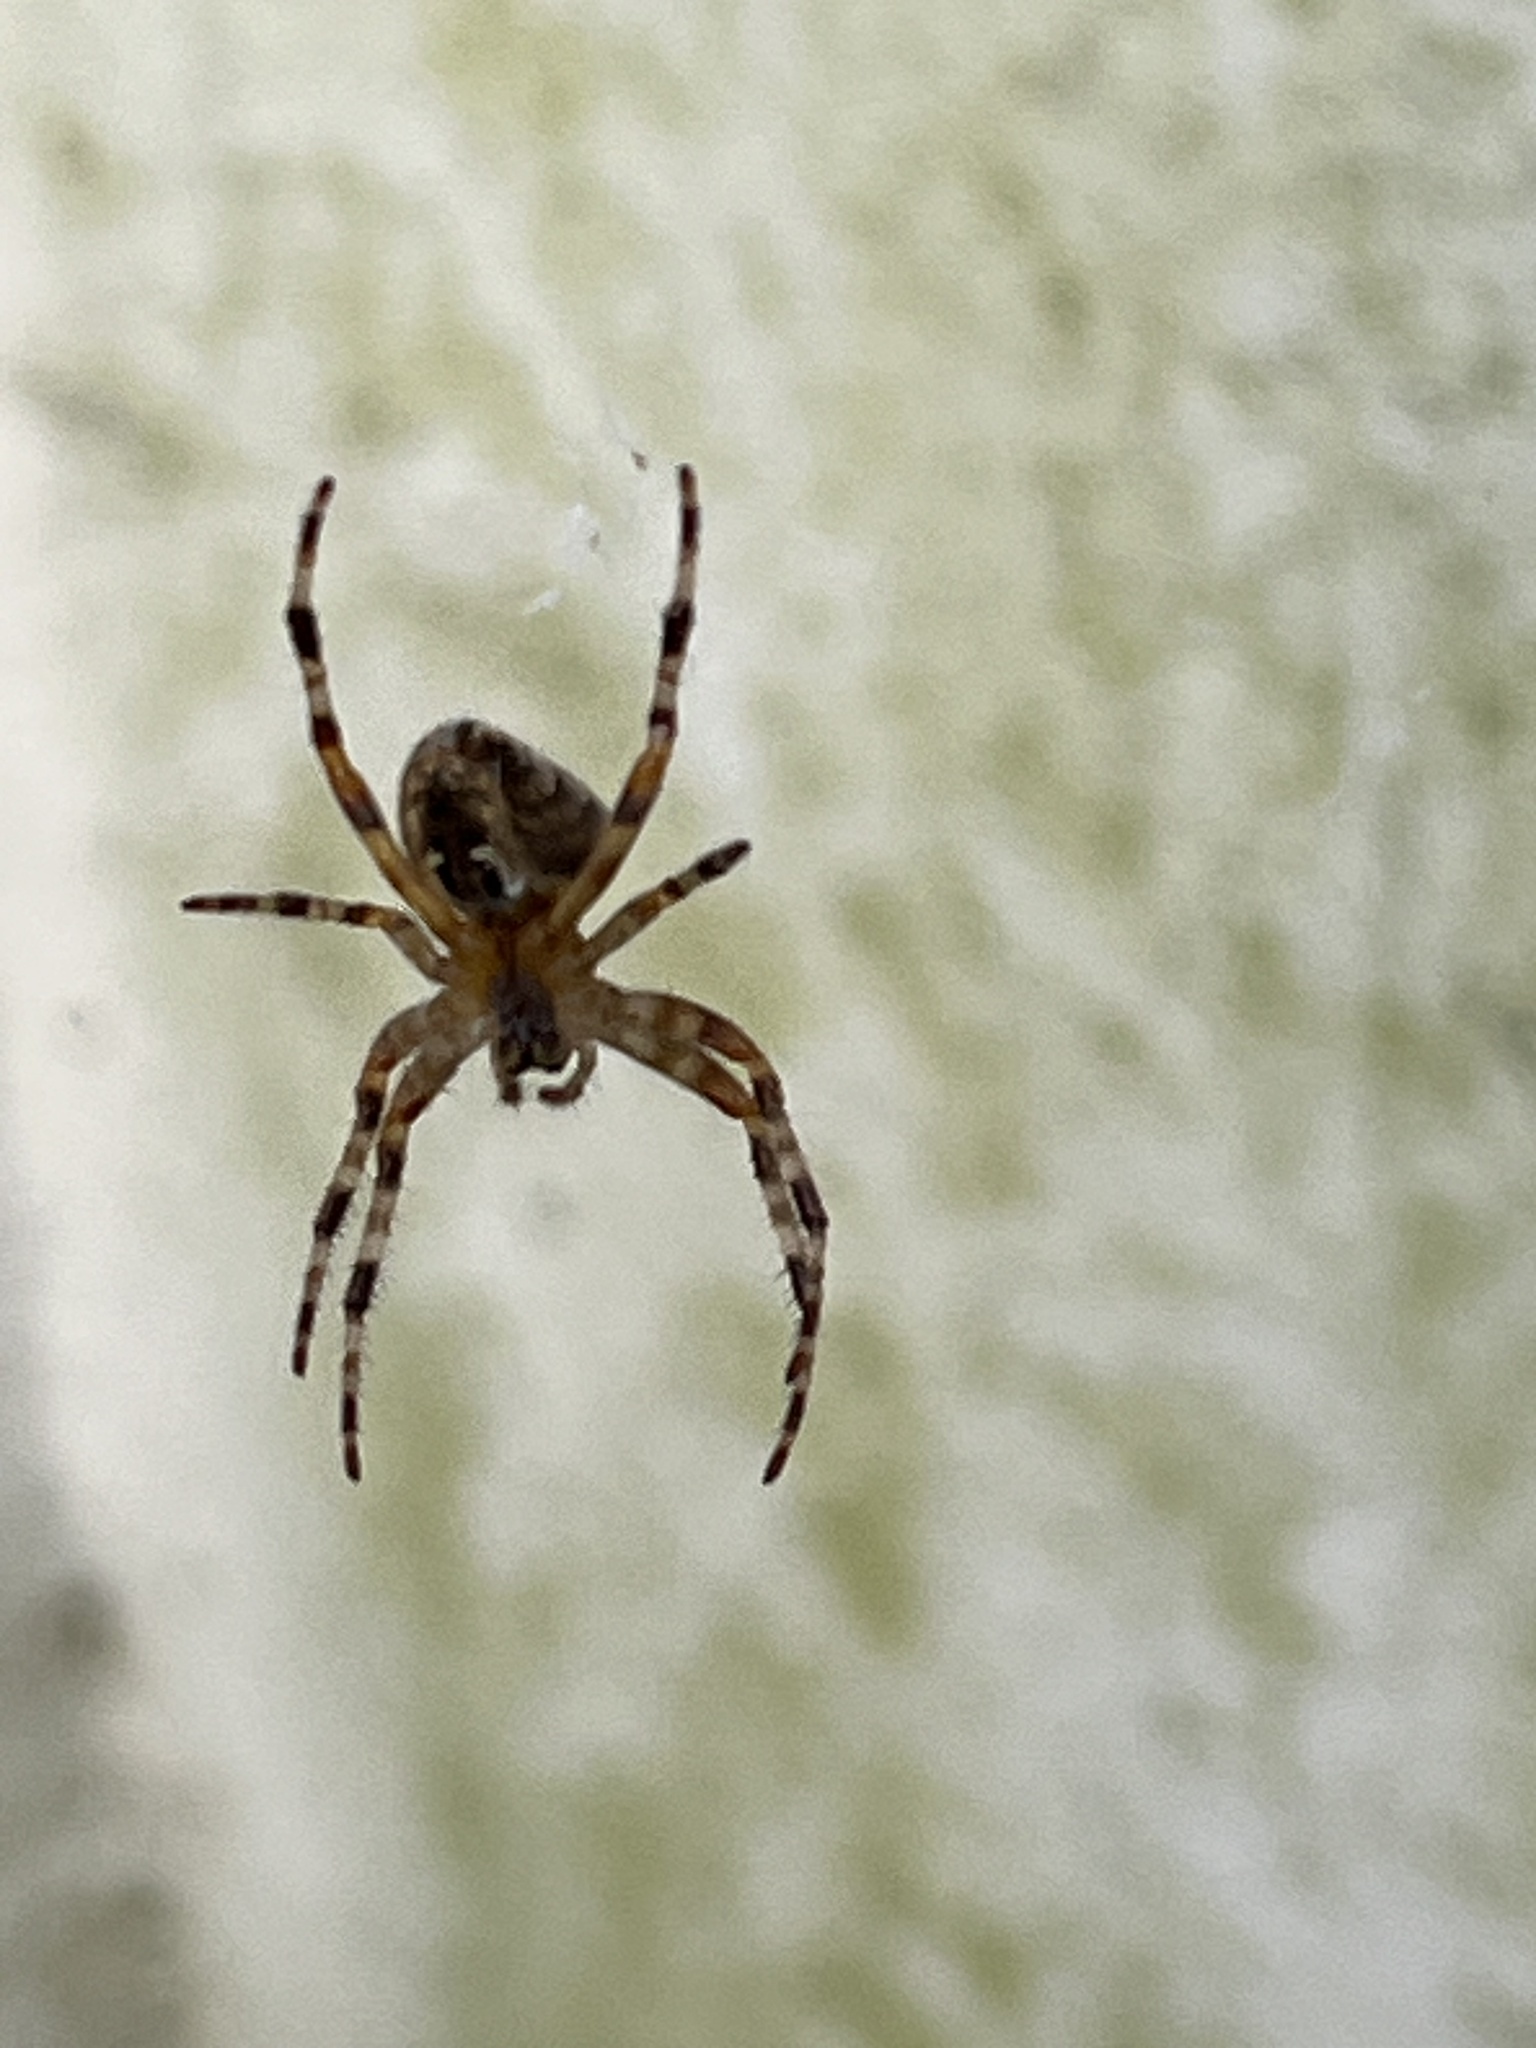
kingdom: Animalia
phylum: Arthropoda
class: Arachnida
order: Araneae
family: Araneidae
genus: Araneus
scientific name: Araneus diadematus
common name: Cross orbweaver
